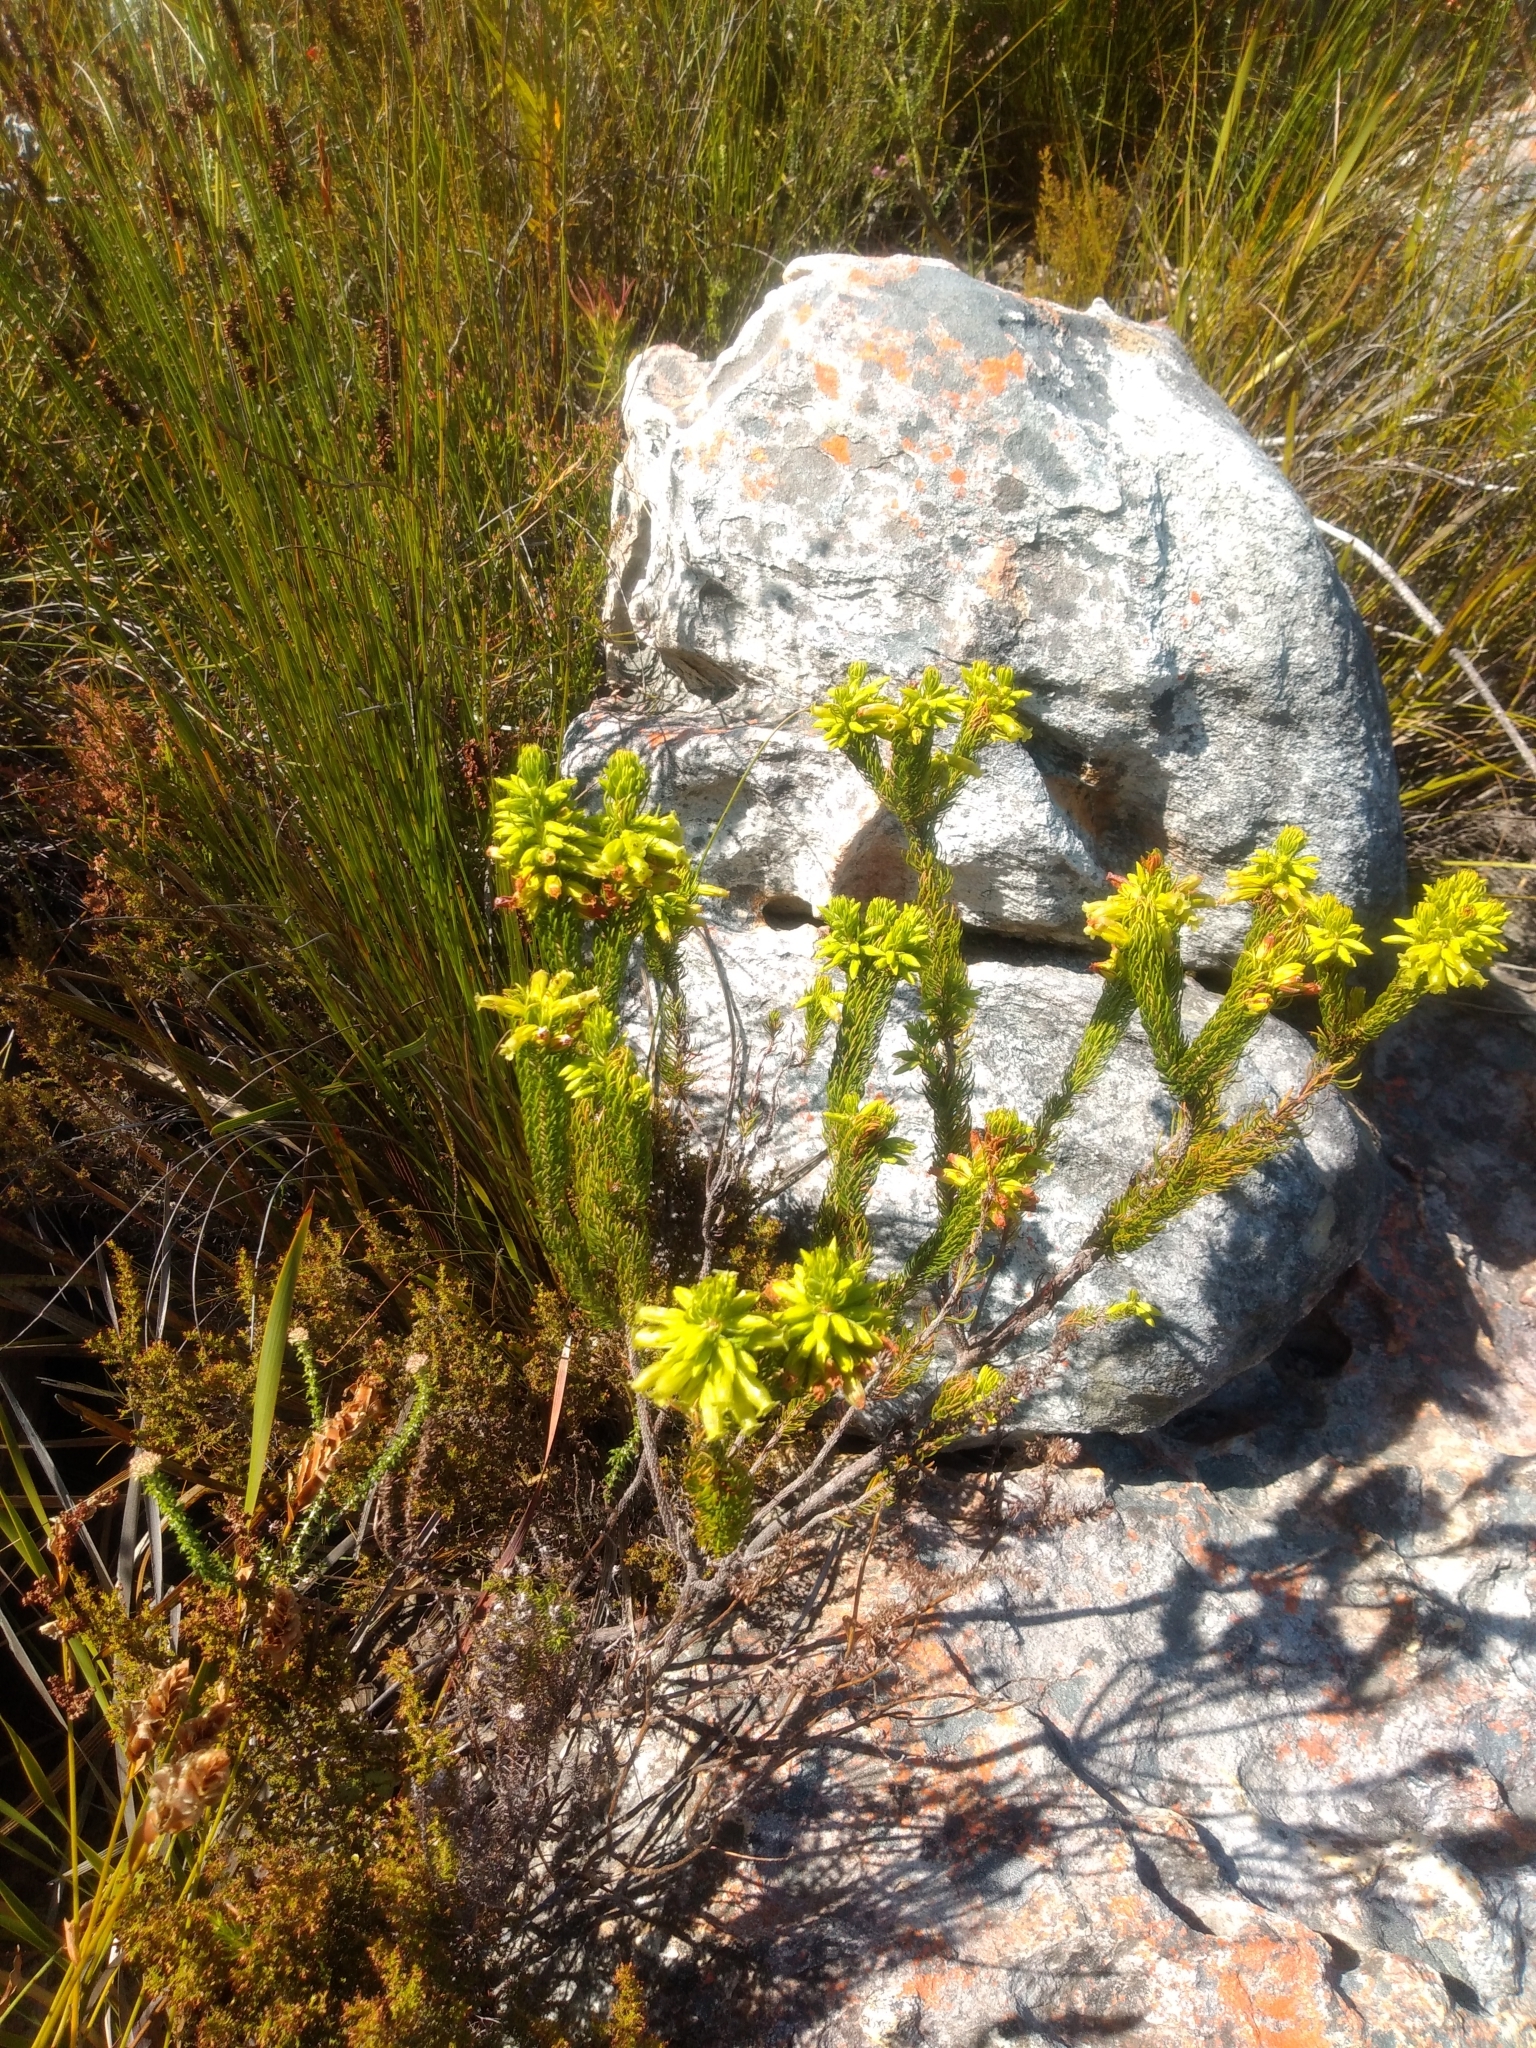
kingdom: Plantae
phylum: Tracheophyta
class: Magnoliopsida
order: Ericales
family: Ericaceae
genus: Erica
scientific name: Erica viscaria
